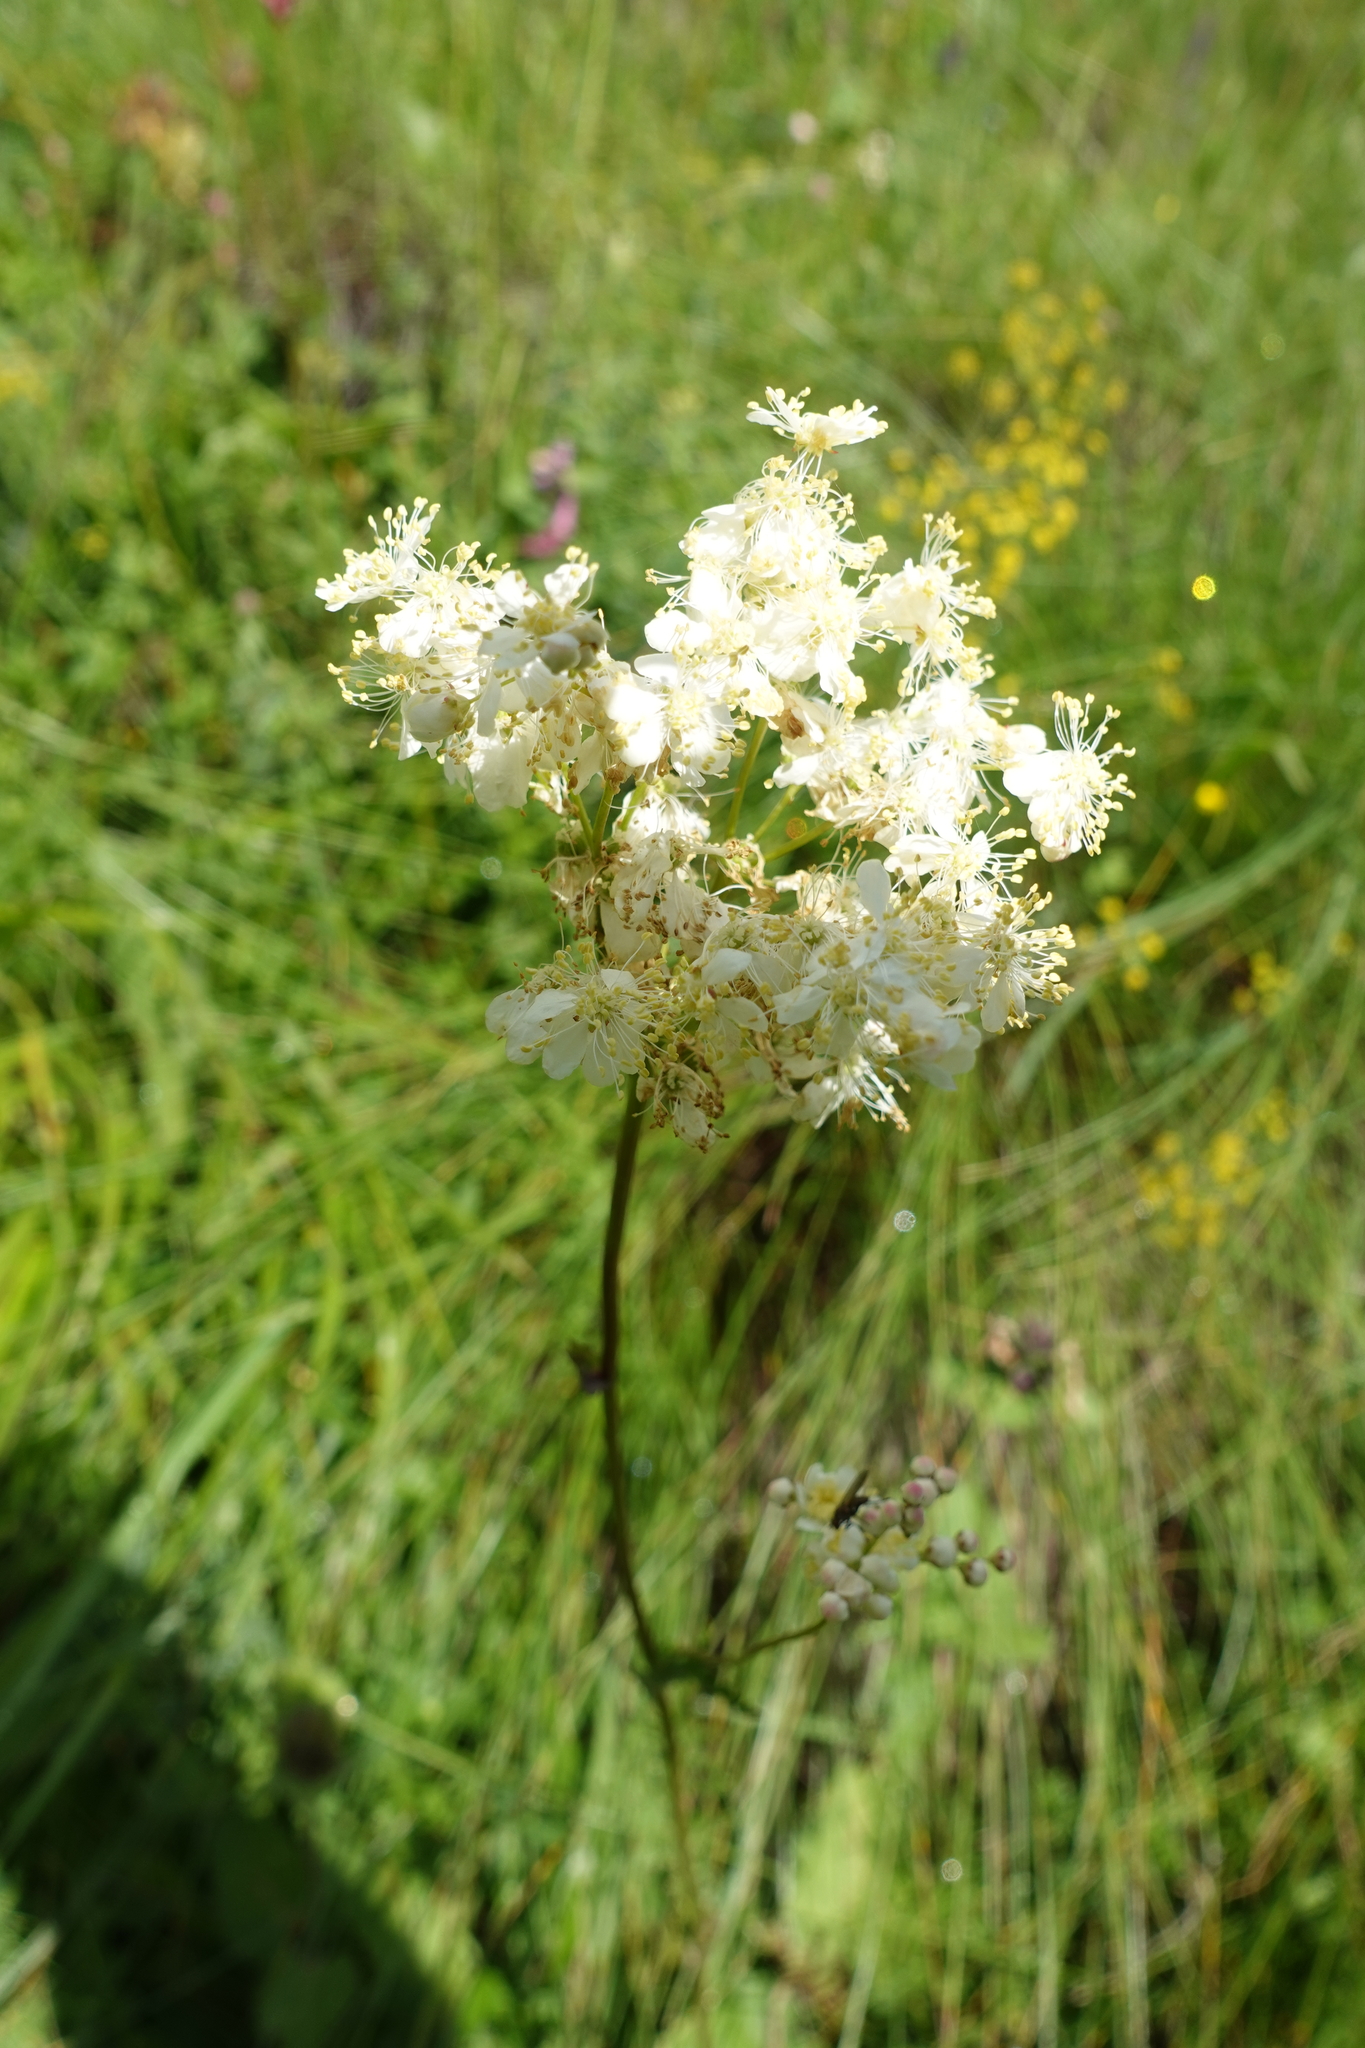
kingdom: Plantae
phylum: Tracheophyta
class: Magnoliopsida
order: Rosales
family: Rosaceae
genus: Filipendula
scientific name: Filipendula vulgaris
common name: Dropwort
